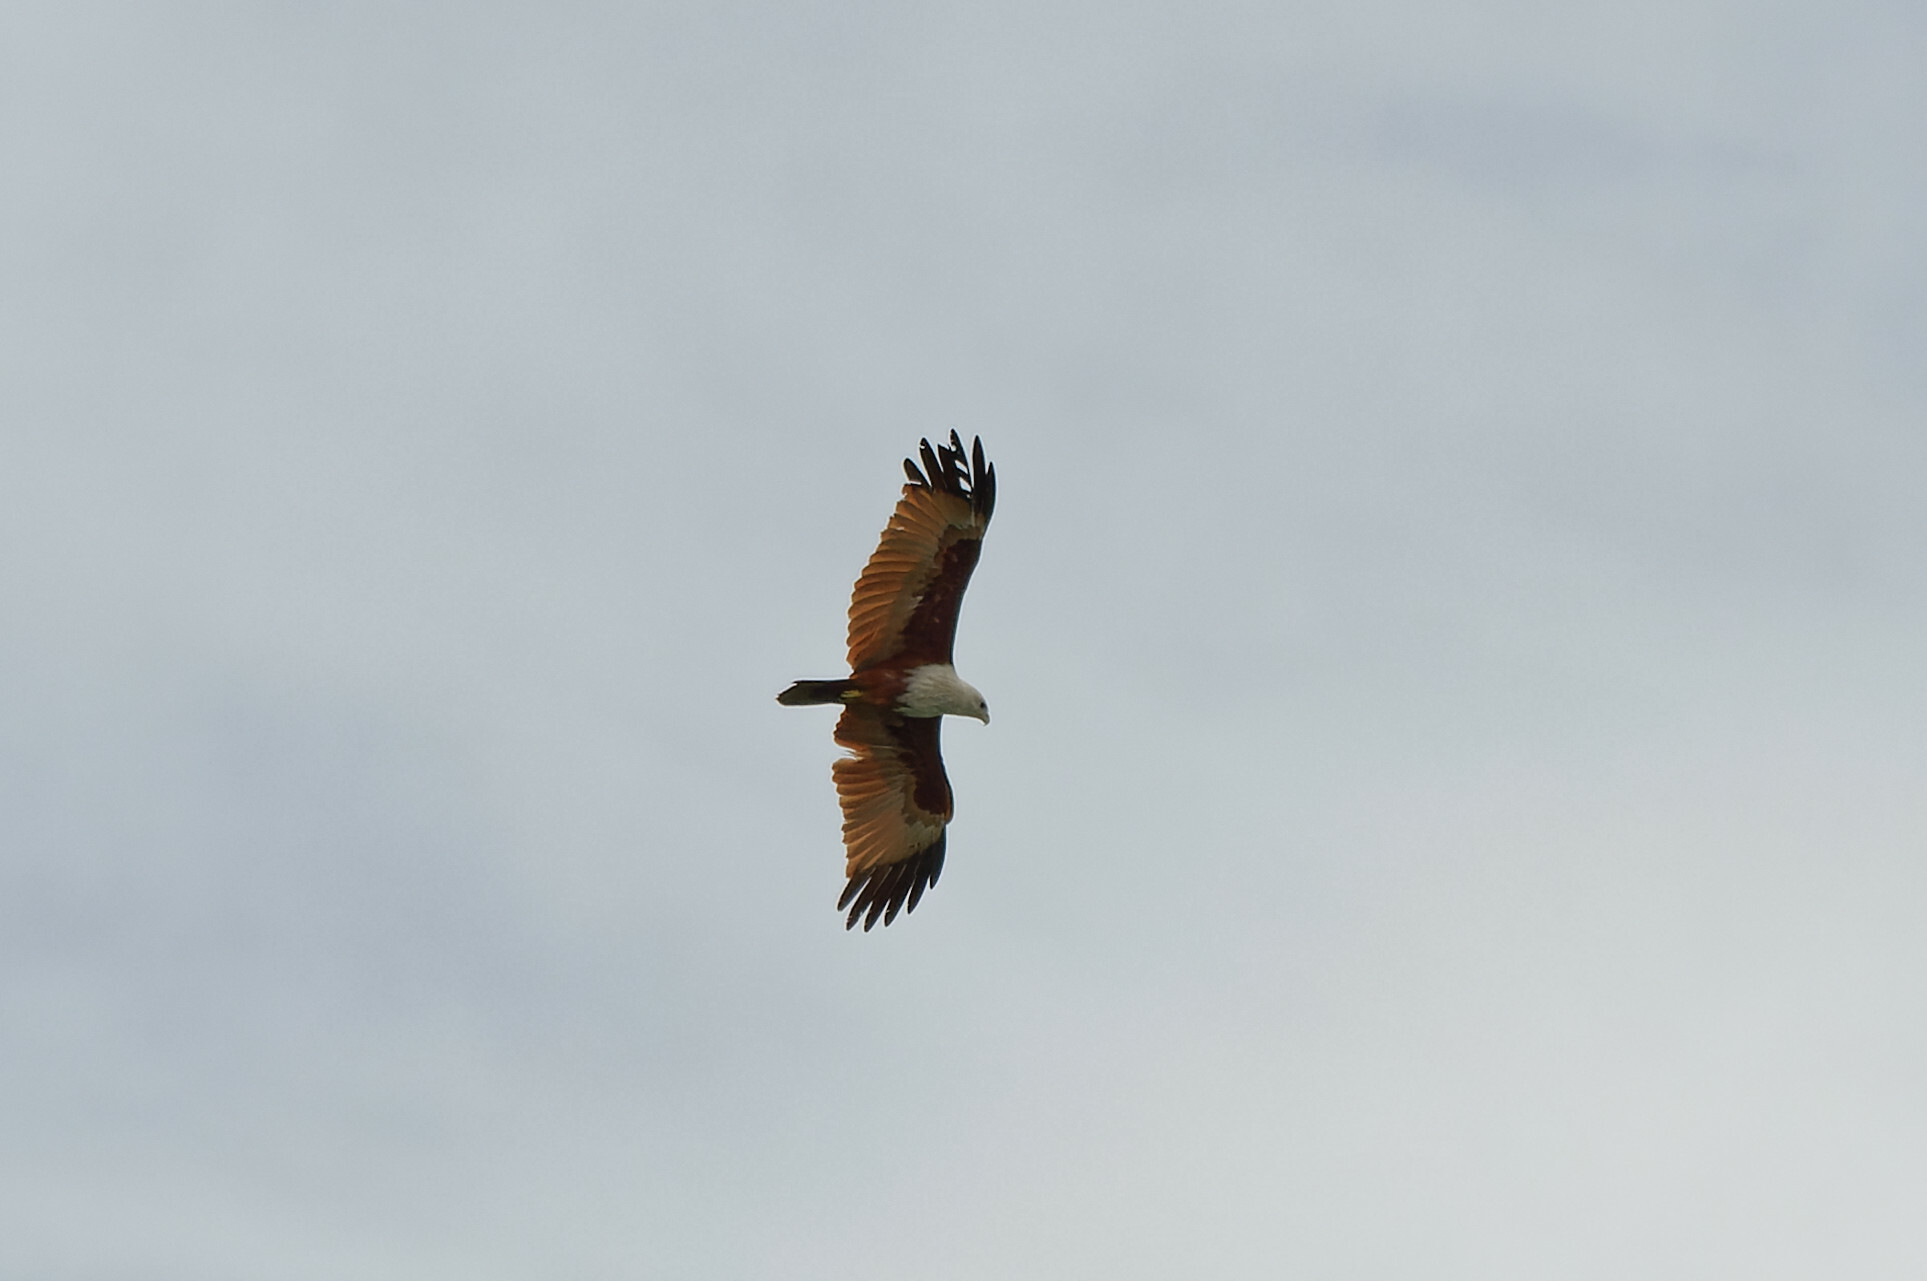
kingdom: Animalia
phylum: Chordata
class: Aves
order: Accipitriformes
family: Accipitridae
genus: Haliastur
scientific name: Haliastur indus
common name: Brahminy kite
